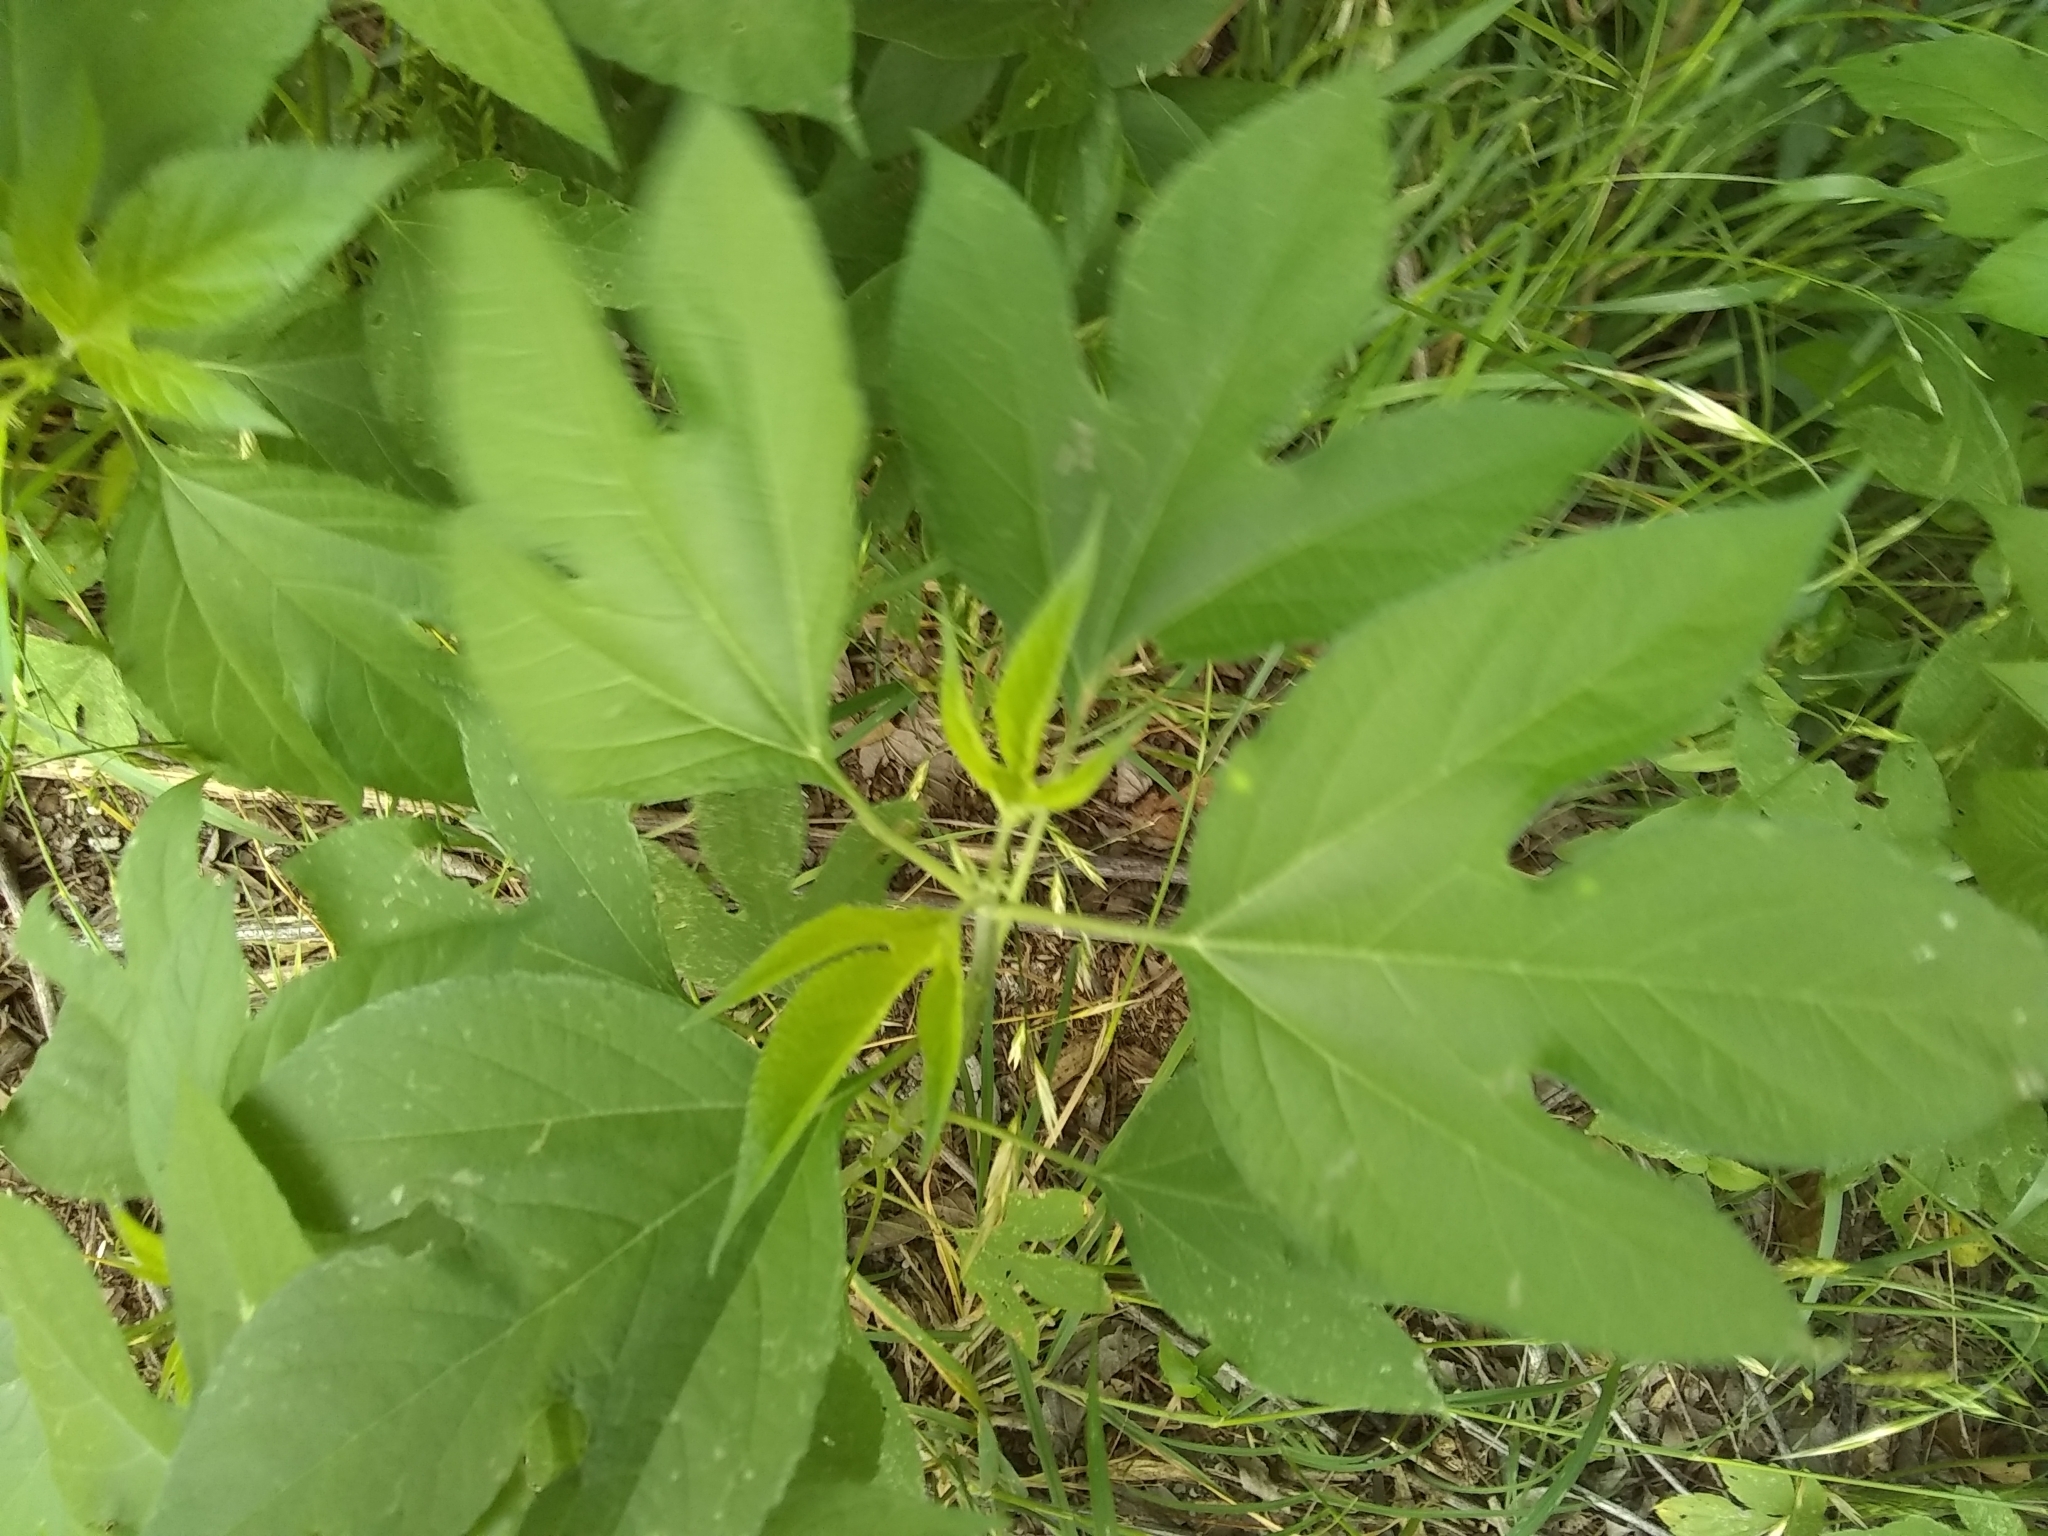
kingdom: Plantae
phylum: Tracheophyta
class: Magnoliopsida
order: Asterales
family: Asteraceae
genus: Ambrosia
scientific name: Ambrosia trifida
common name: Giant ragweed
